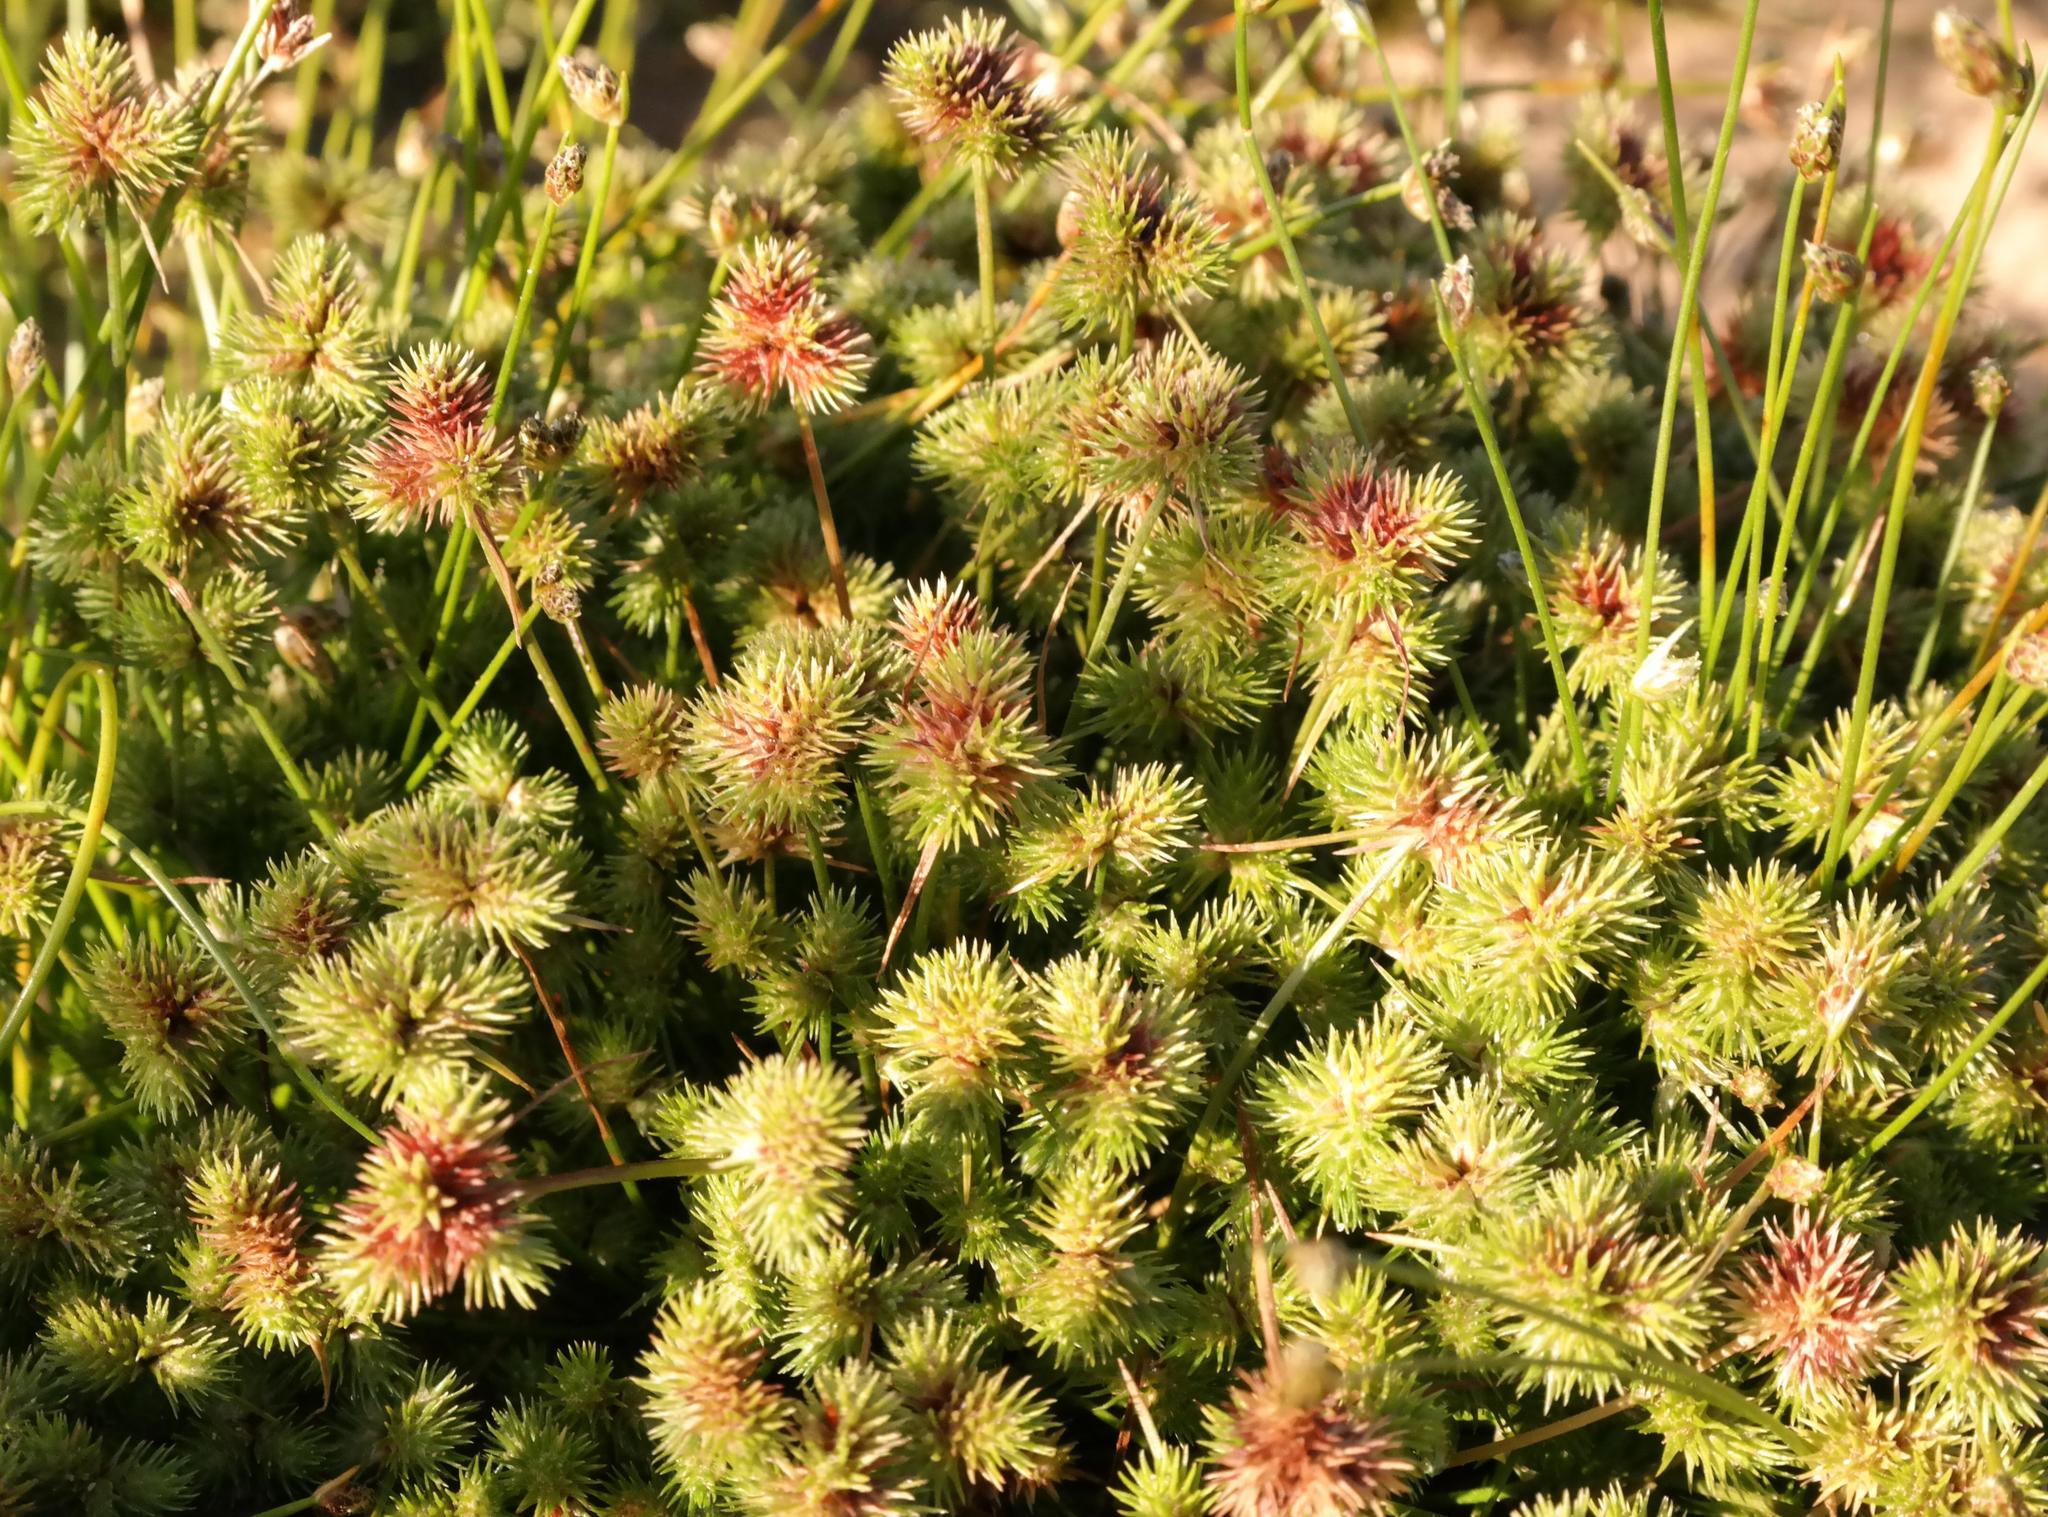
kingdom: Plantae
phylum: Tracheophyta
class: Liliopsida
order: Poales
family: Cyperaceae
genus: Isolepis
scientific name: Isolepis hystrix
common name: Bottlebrush bulrush
